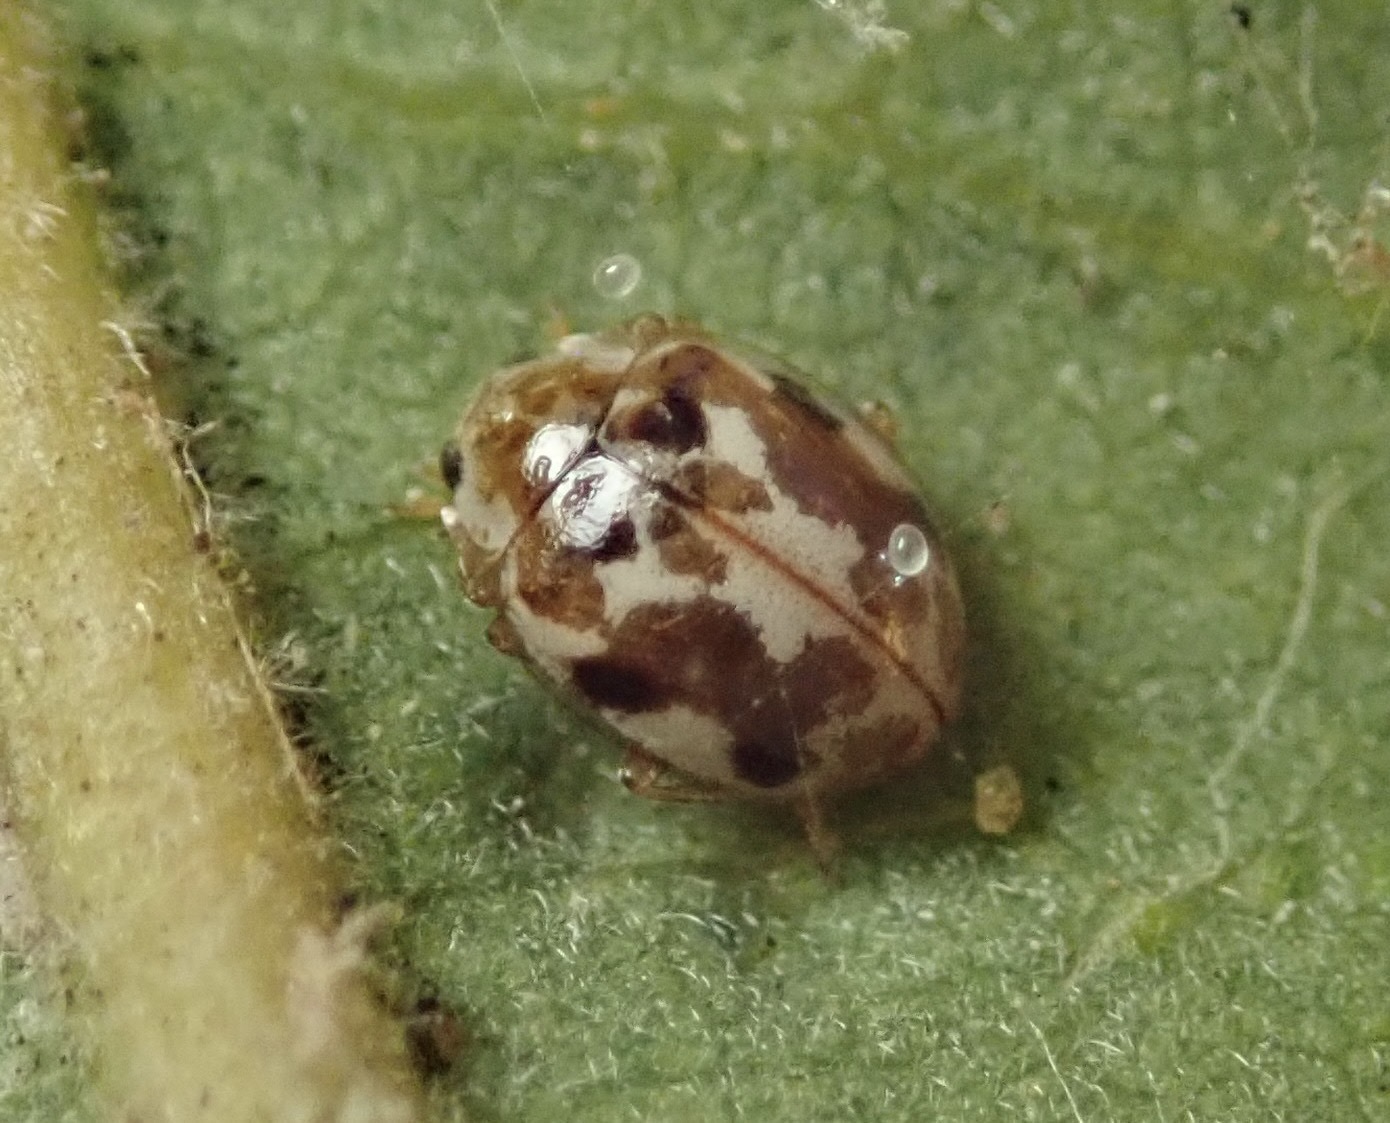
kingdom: Animalia
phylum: Arthropoda
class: Insecta
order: Coleoptera
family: Coccinellidae
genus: Psyllobora
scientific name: Psyllobora vigintimaculata
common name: Ladybird beetle
